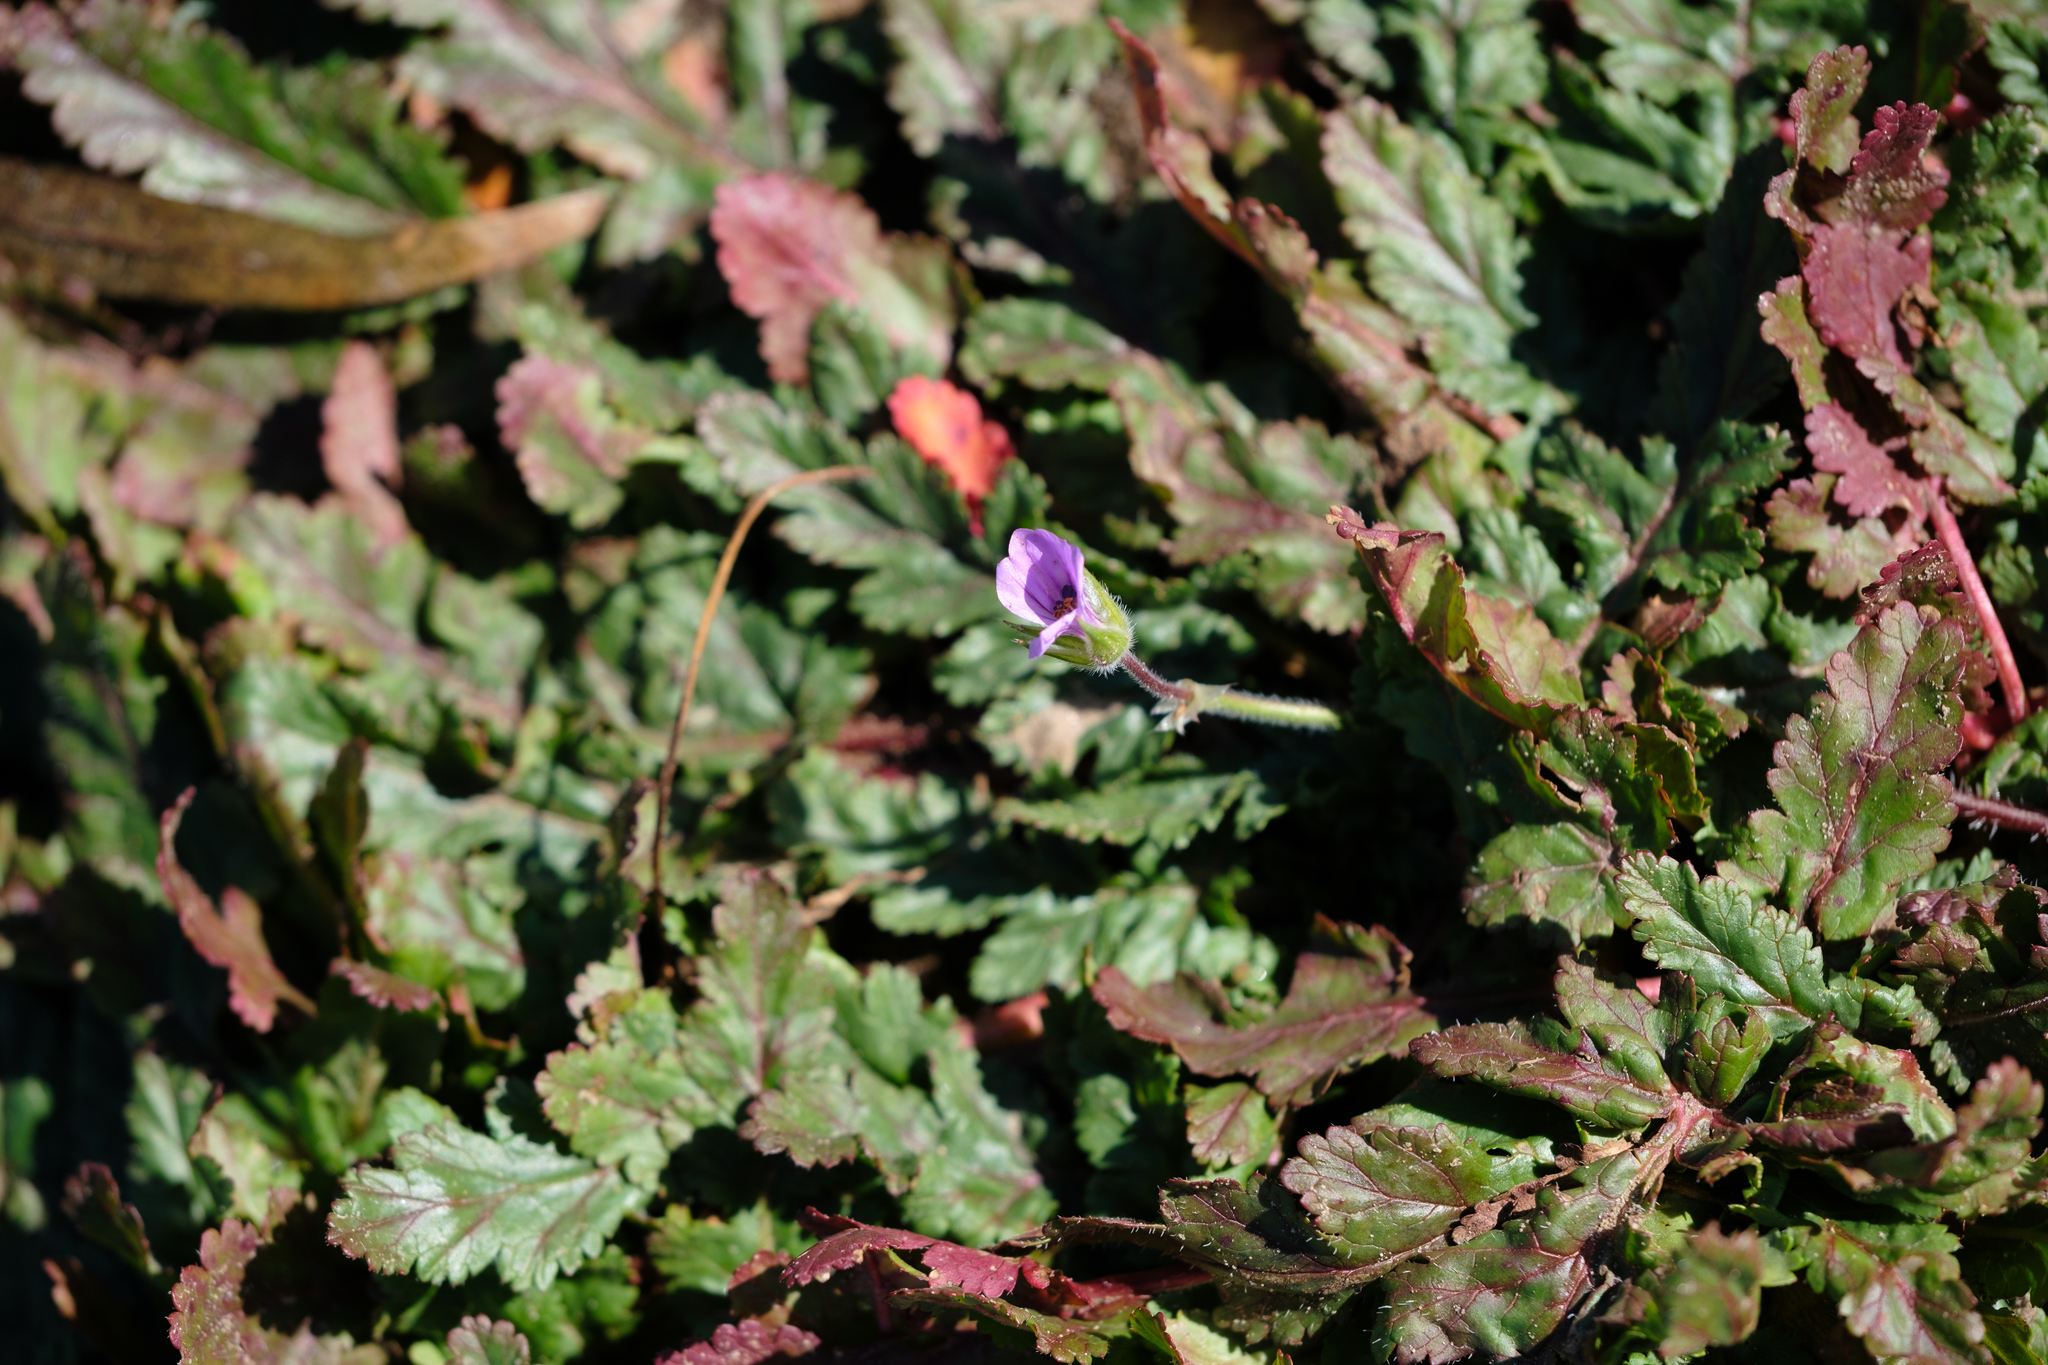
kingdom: Plantae
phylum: Tracheophyta
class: Magnoliopsida
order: Geraniales
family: Geraniaceae
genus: Erodium
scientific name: Erodium botrys
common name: Mediterranean stork's-bill
